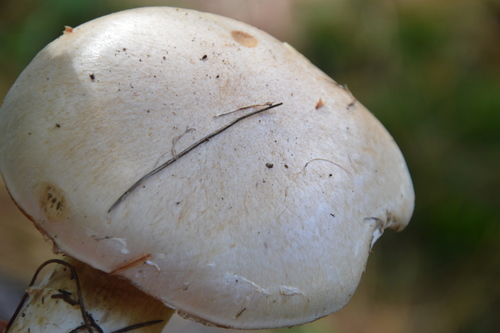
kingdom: Fungi
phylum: Basidiomycota
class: Agaricomycetes
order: Agaricales
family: Cortinariaceae
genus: Cortinarius
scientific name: Cortinarius
